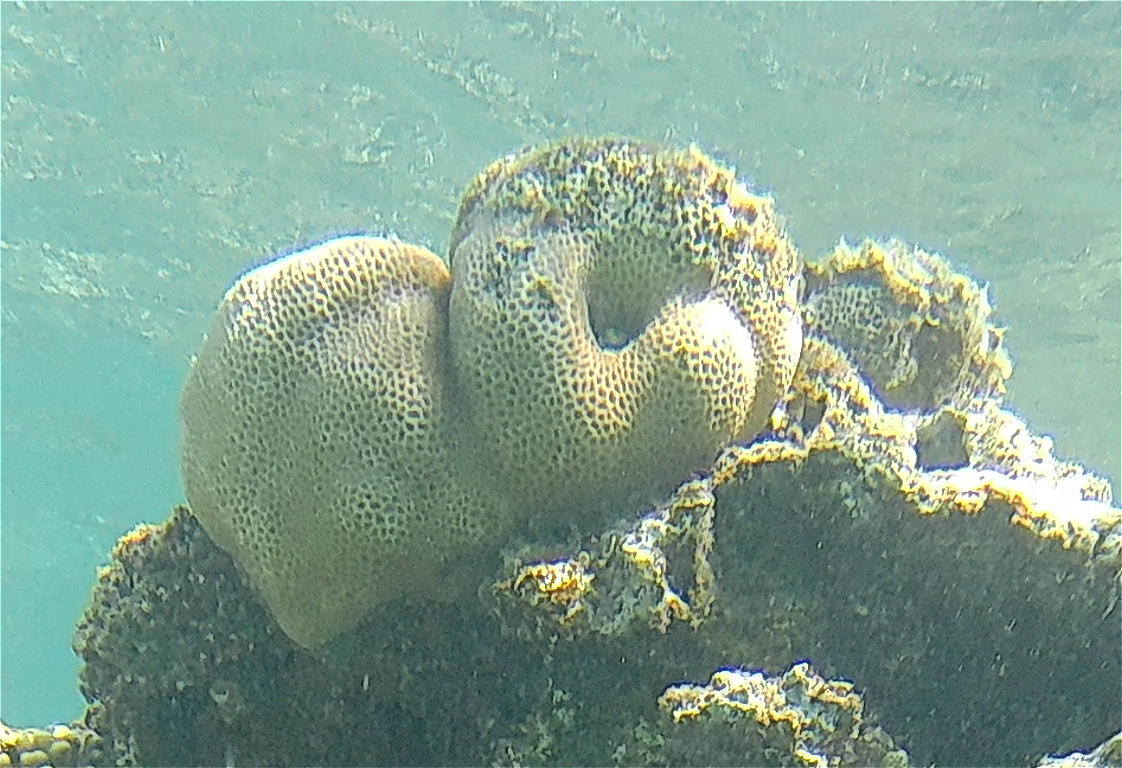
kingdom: Animalia
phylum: Cnidaria
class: Anthozoa
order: Scleractinia
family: Merulinidae
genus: Goniastrea
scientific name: Goniastrea pectinata
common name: Lesser star coral
